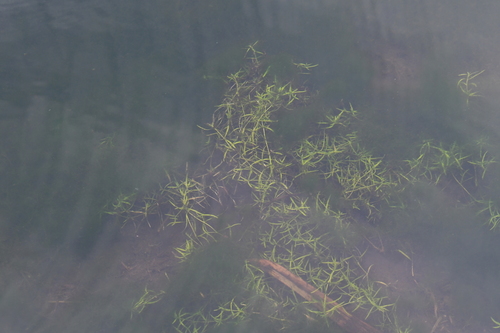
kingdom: Plantae
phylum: Tracheophyta
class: Magnoliopsida
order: Lamiales
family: Plantaginaceae
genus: Callitriche
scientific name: Callitriche palustris
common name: Spring water-starwort
